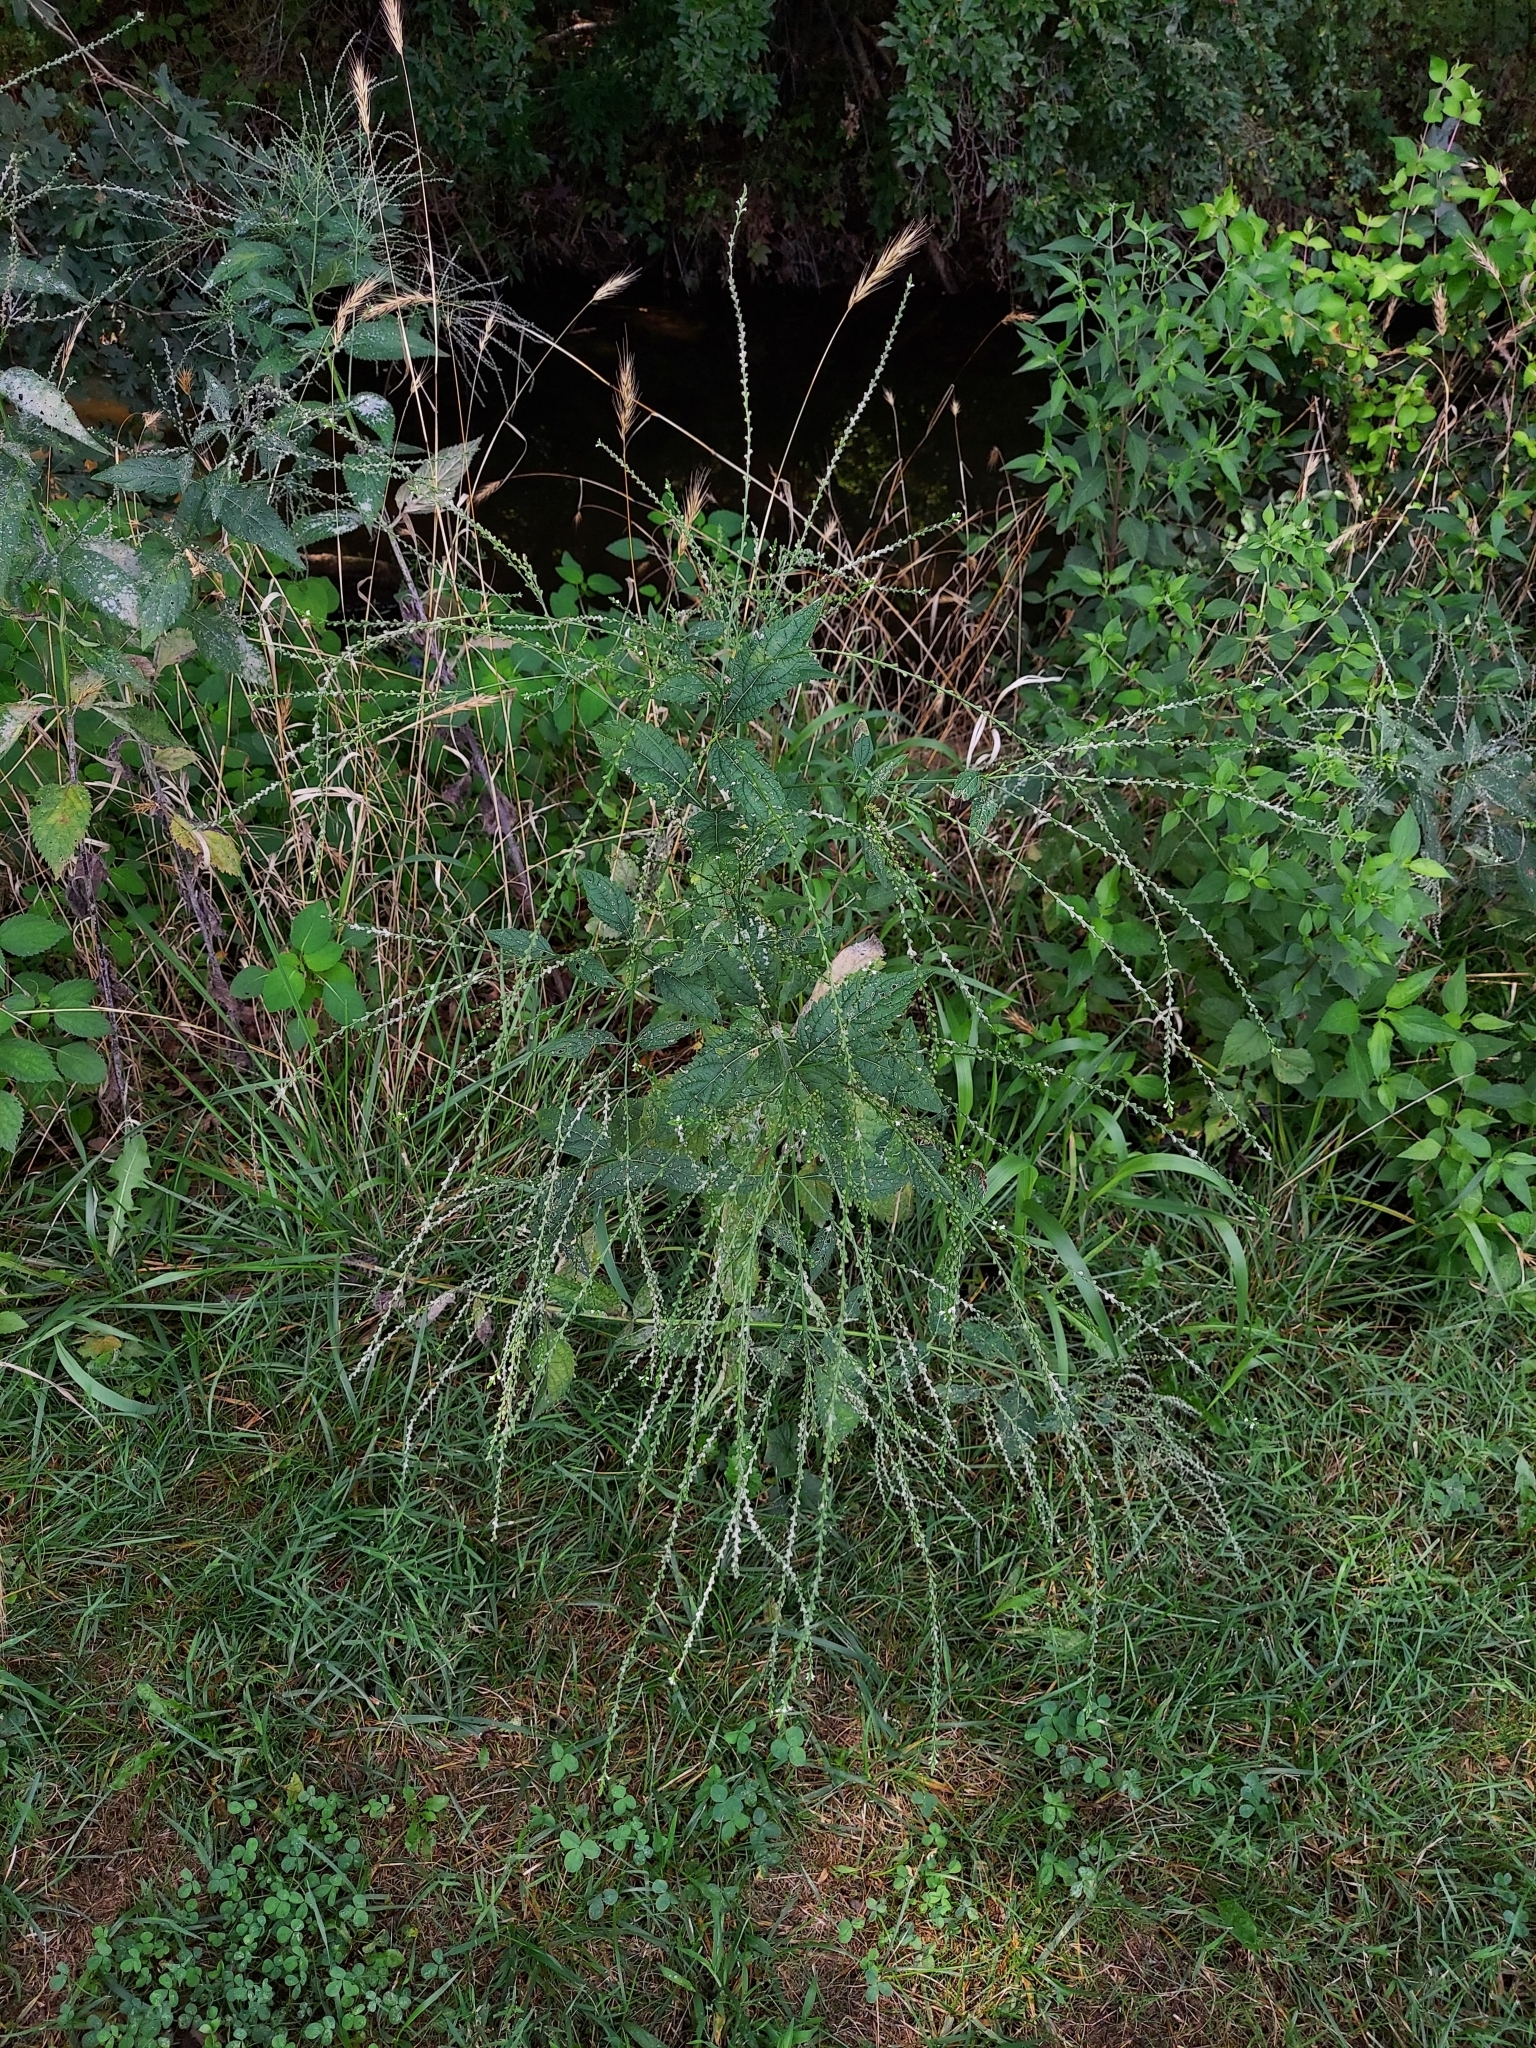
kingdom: Plantae
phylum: Tracheophyta
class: Magnoliopsida
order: Lamiales
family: Verbenaceae
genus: Verbena
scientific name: Verbena urticifolia
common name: Nettle-leaved vervain
